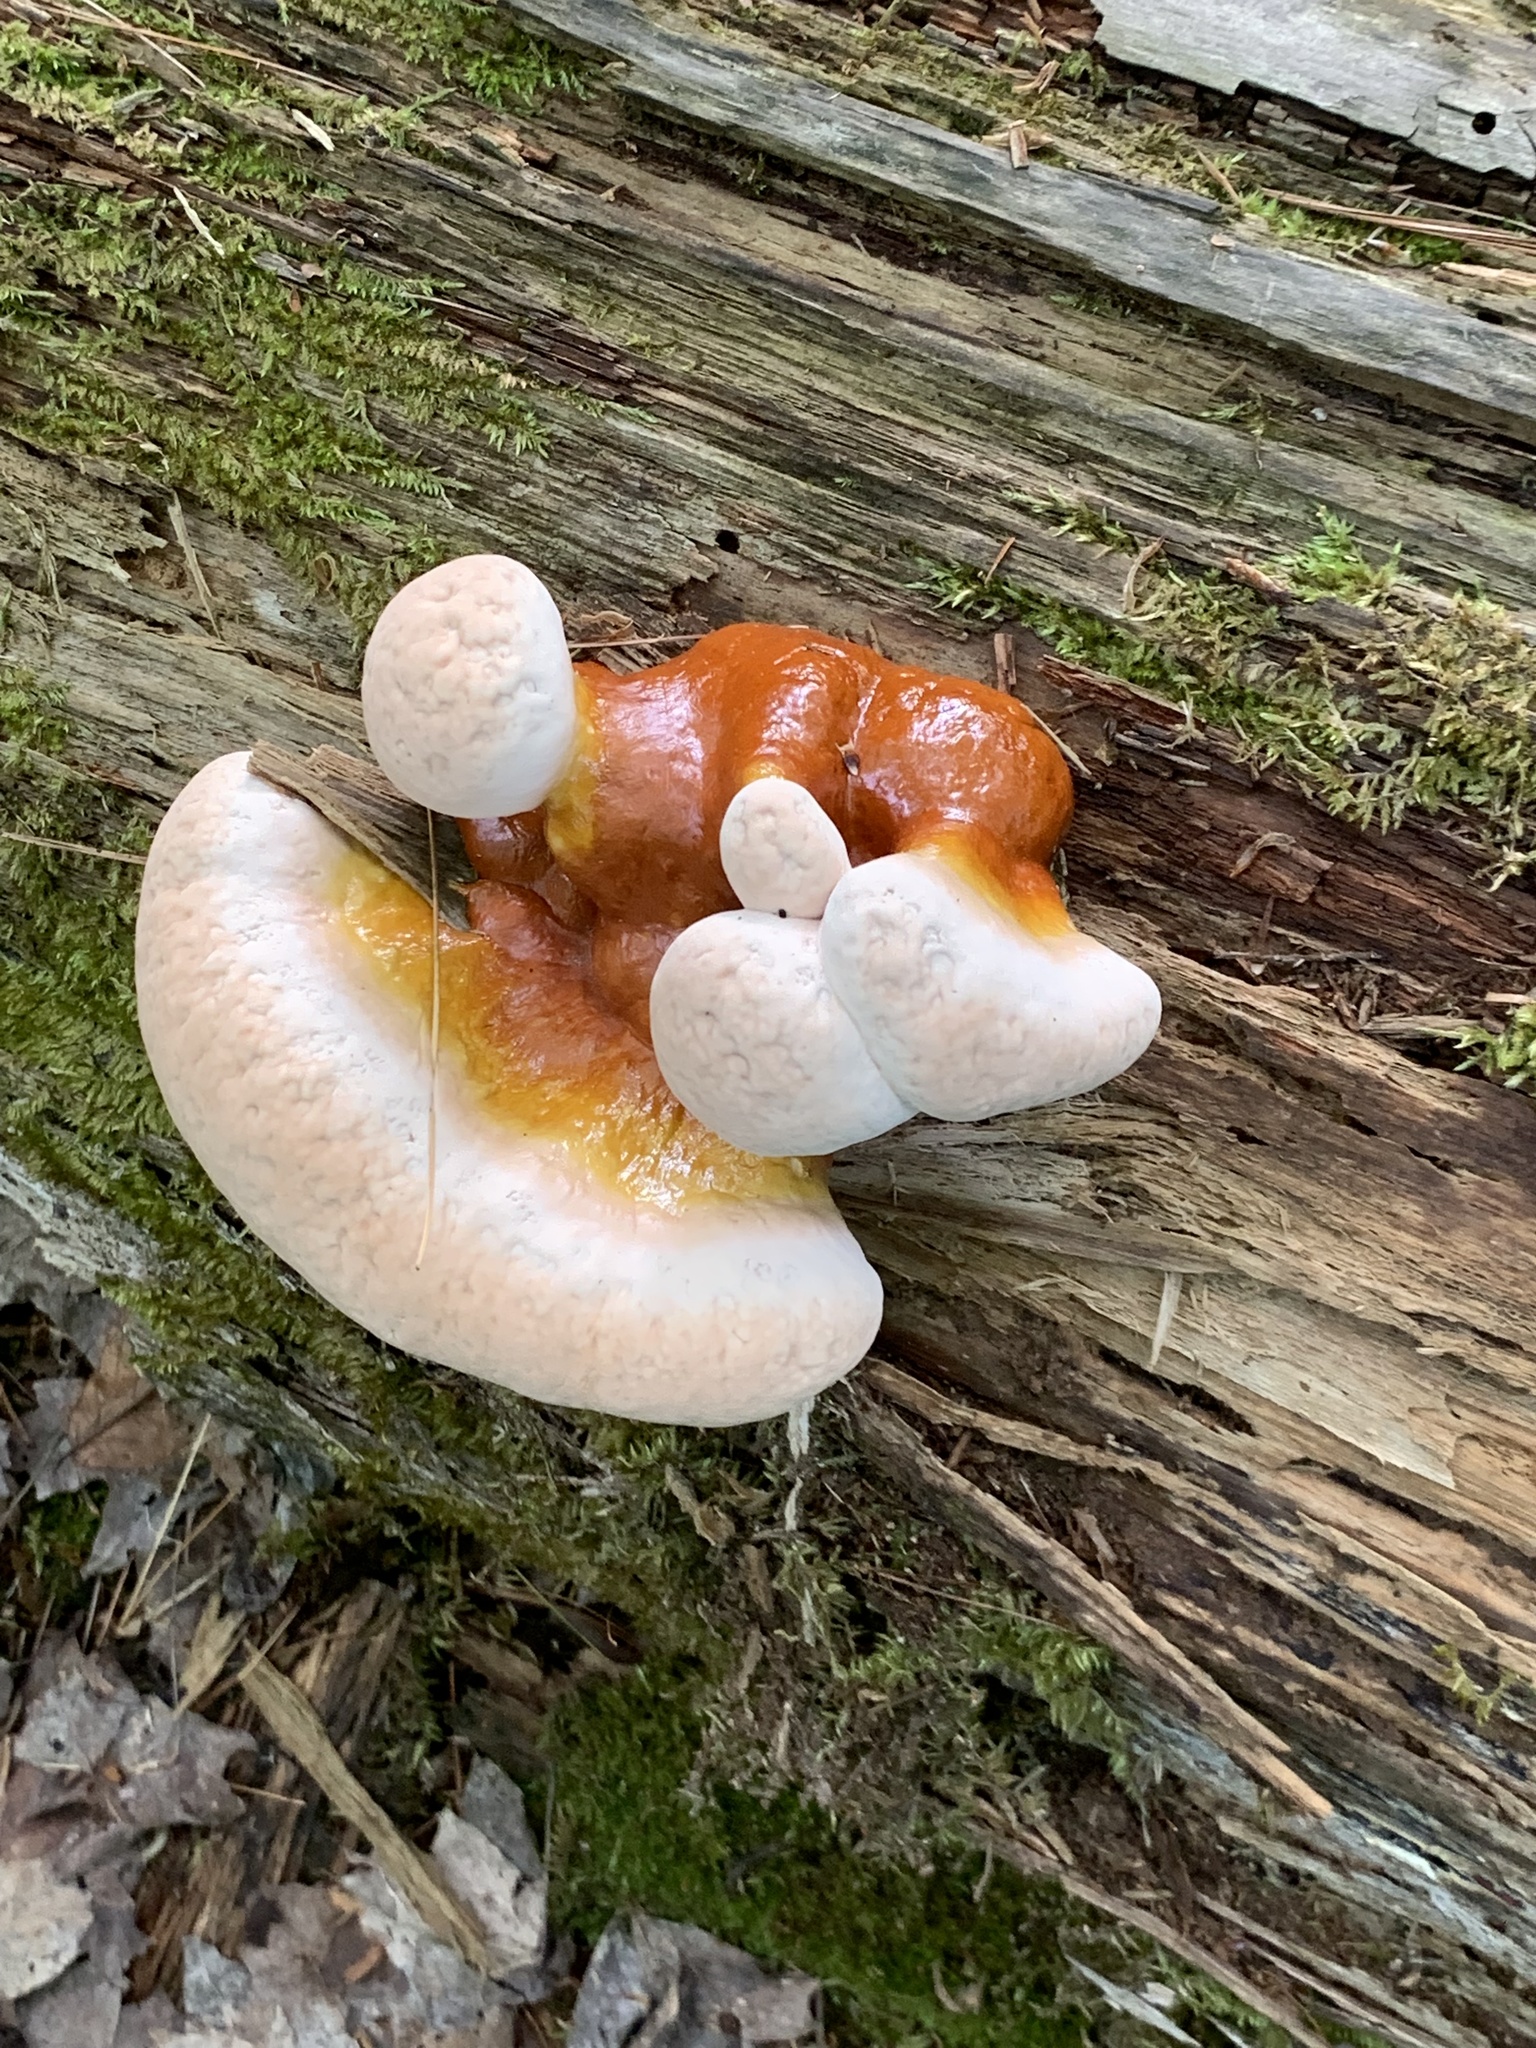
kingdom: Fungi
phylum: Basidiomycota
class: Agaricomycetes
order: Polyporales
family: Polyporaceae
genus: Ganoderma
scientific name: Ganoderma tsugae
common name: Hemlock varnish shelf
